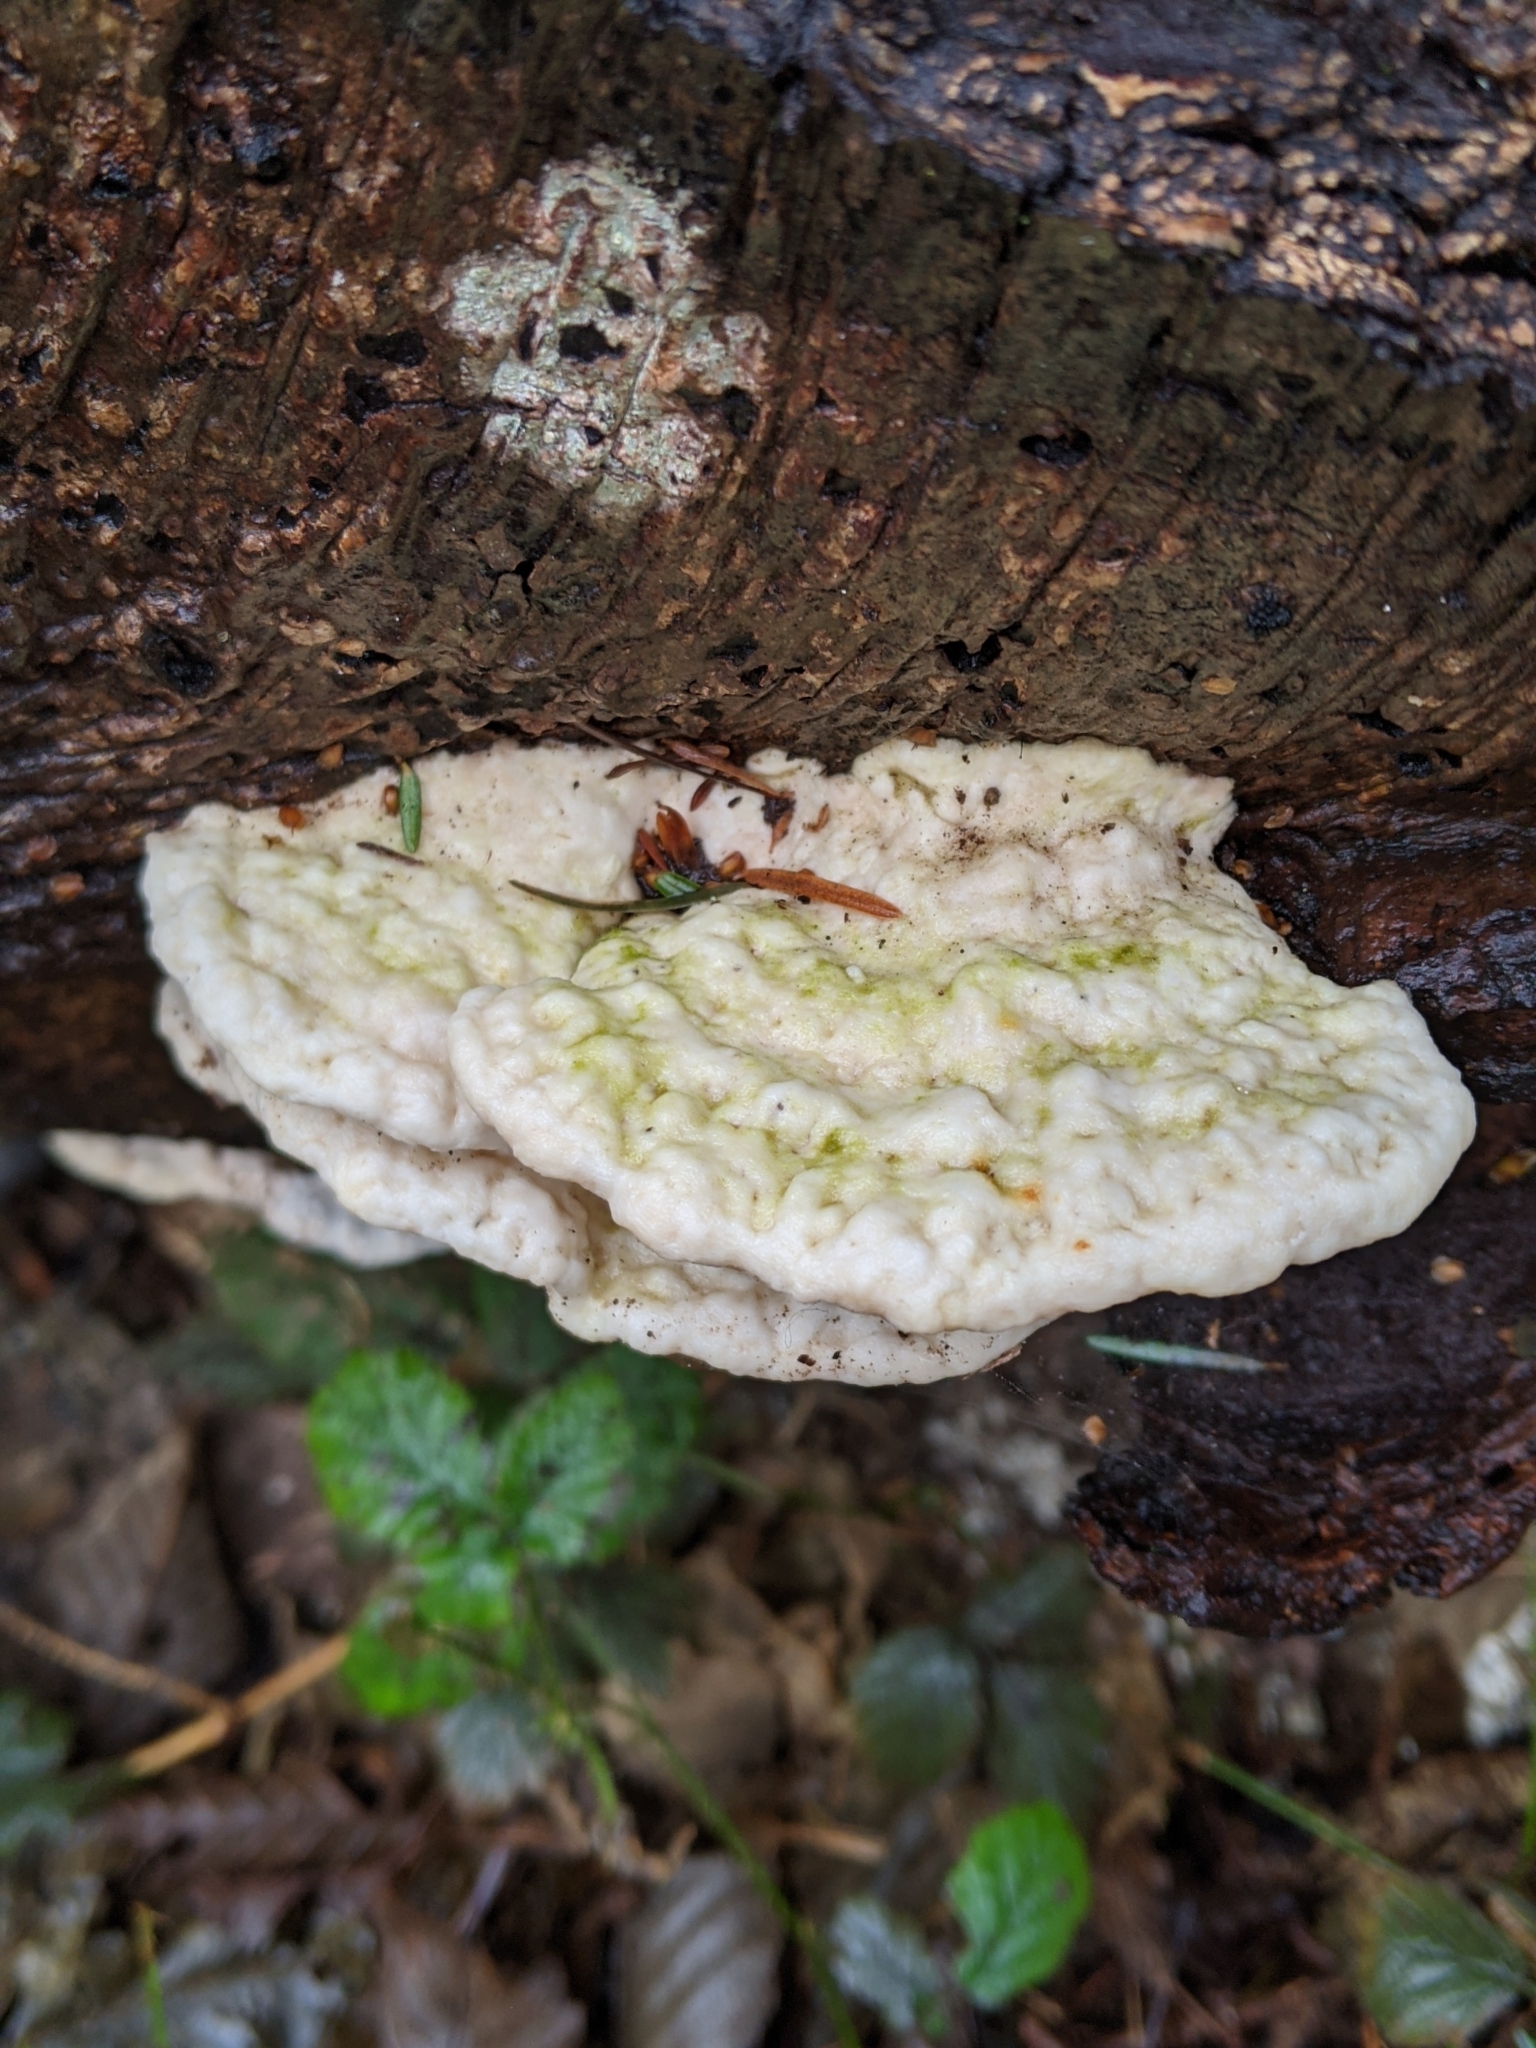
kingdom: Fungi
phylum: Basidiomycota
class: Agaricomycetes
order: Polyporales
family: Polyporaceae
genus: Trametes
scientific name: Trametes gibbosa
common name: Lumpy bracket
